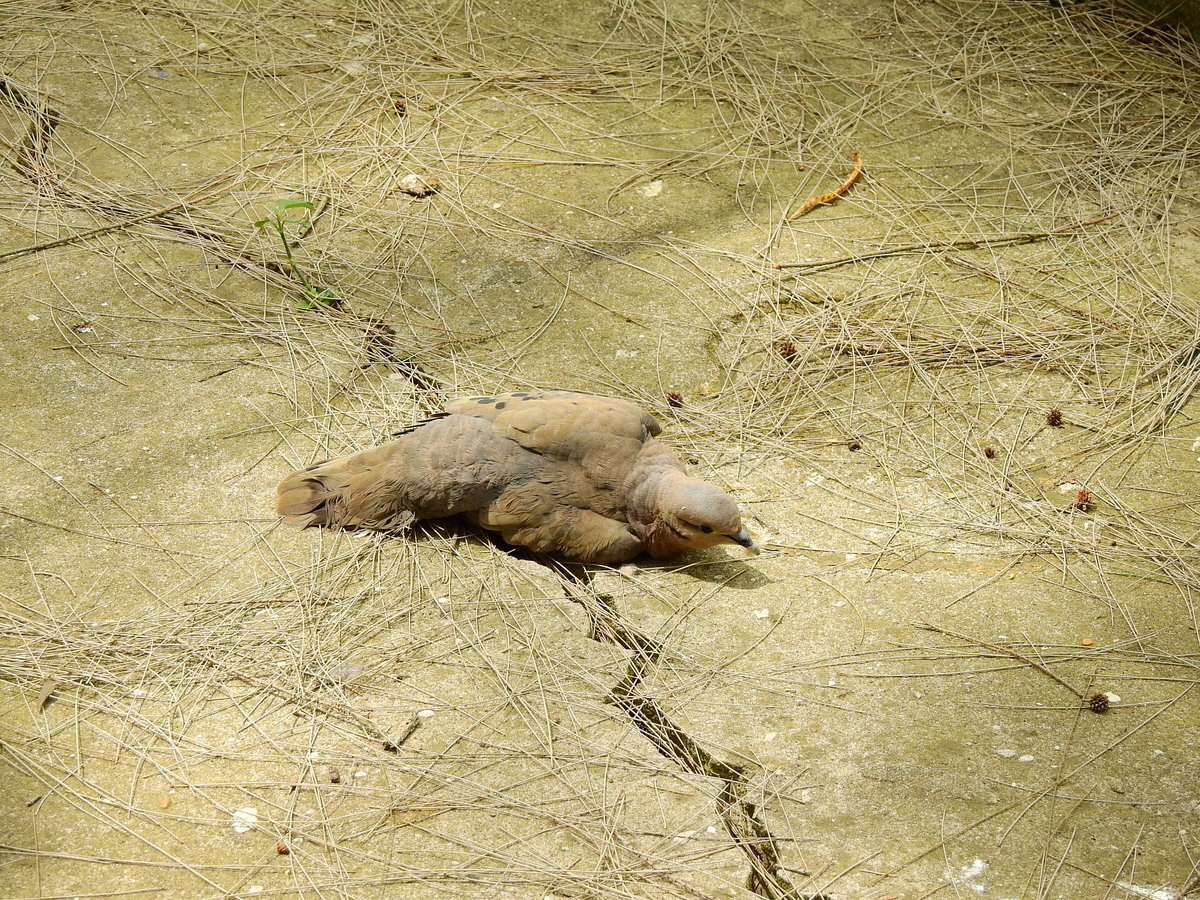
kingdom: Animalia
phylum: Chordata
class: Aves
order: Columbiformes
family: Columbidae
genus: Zenaida
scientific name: Zenaida auriculata
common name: Eared dove
